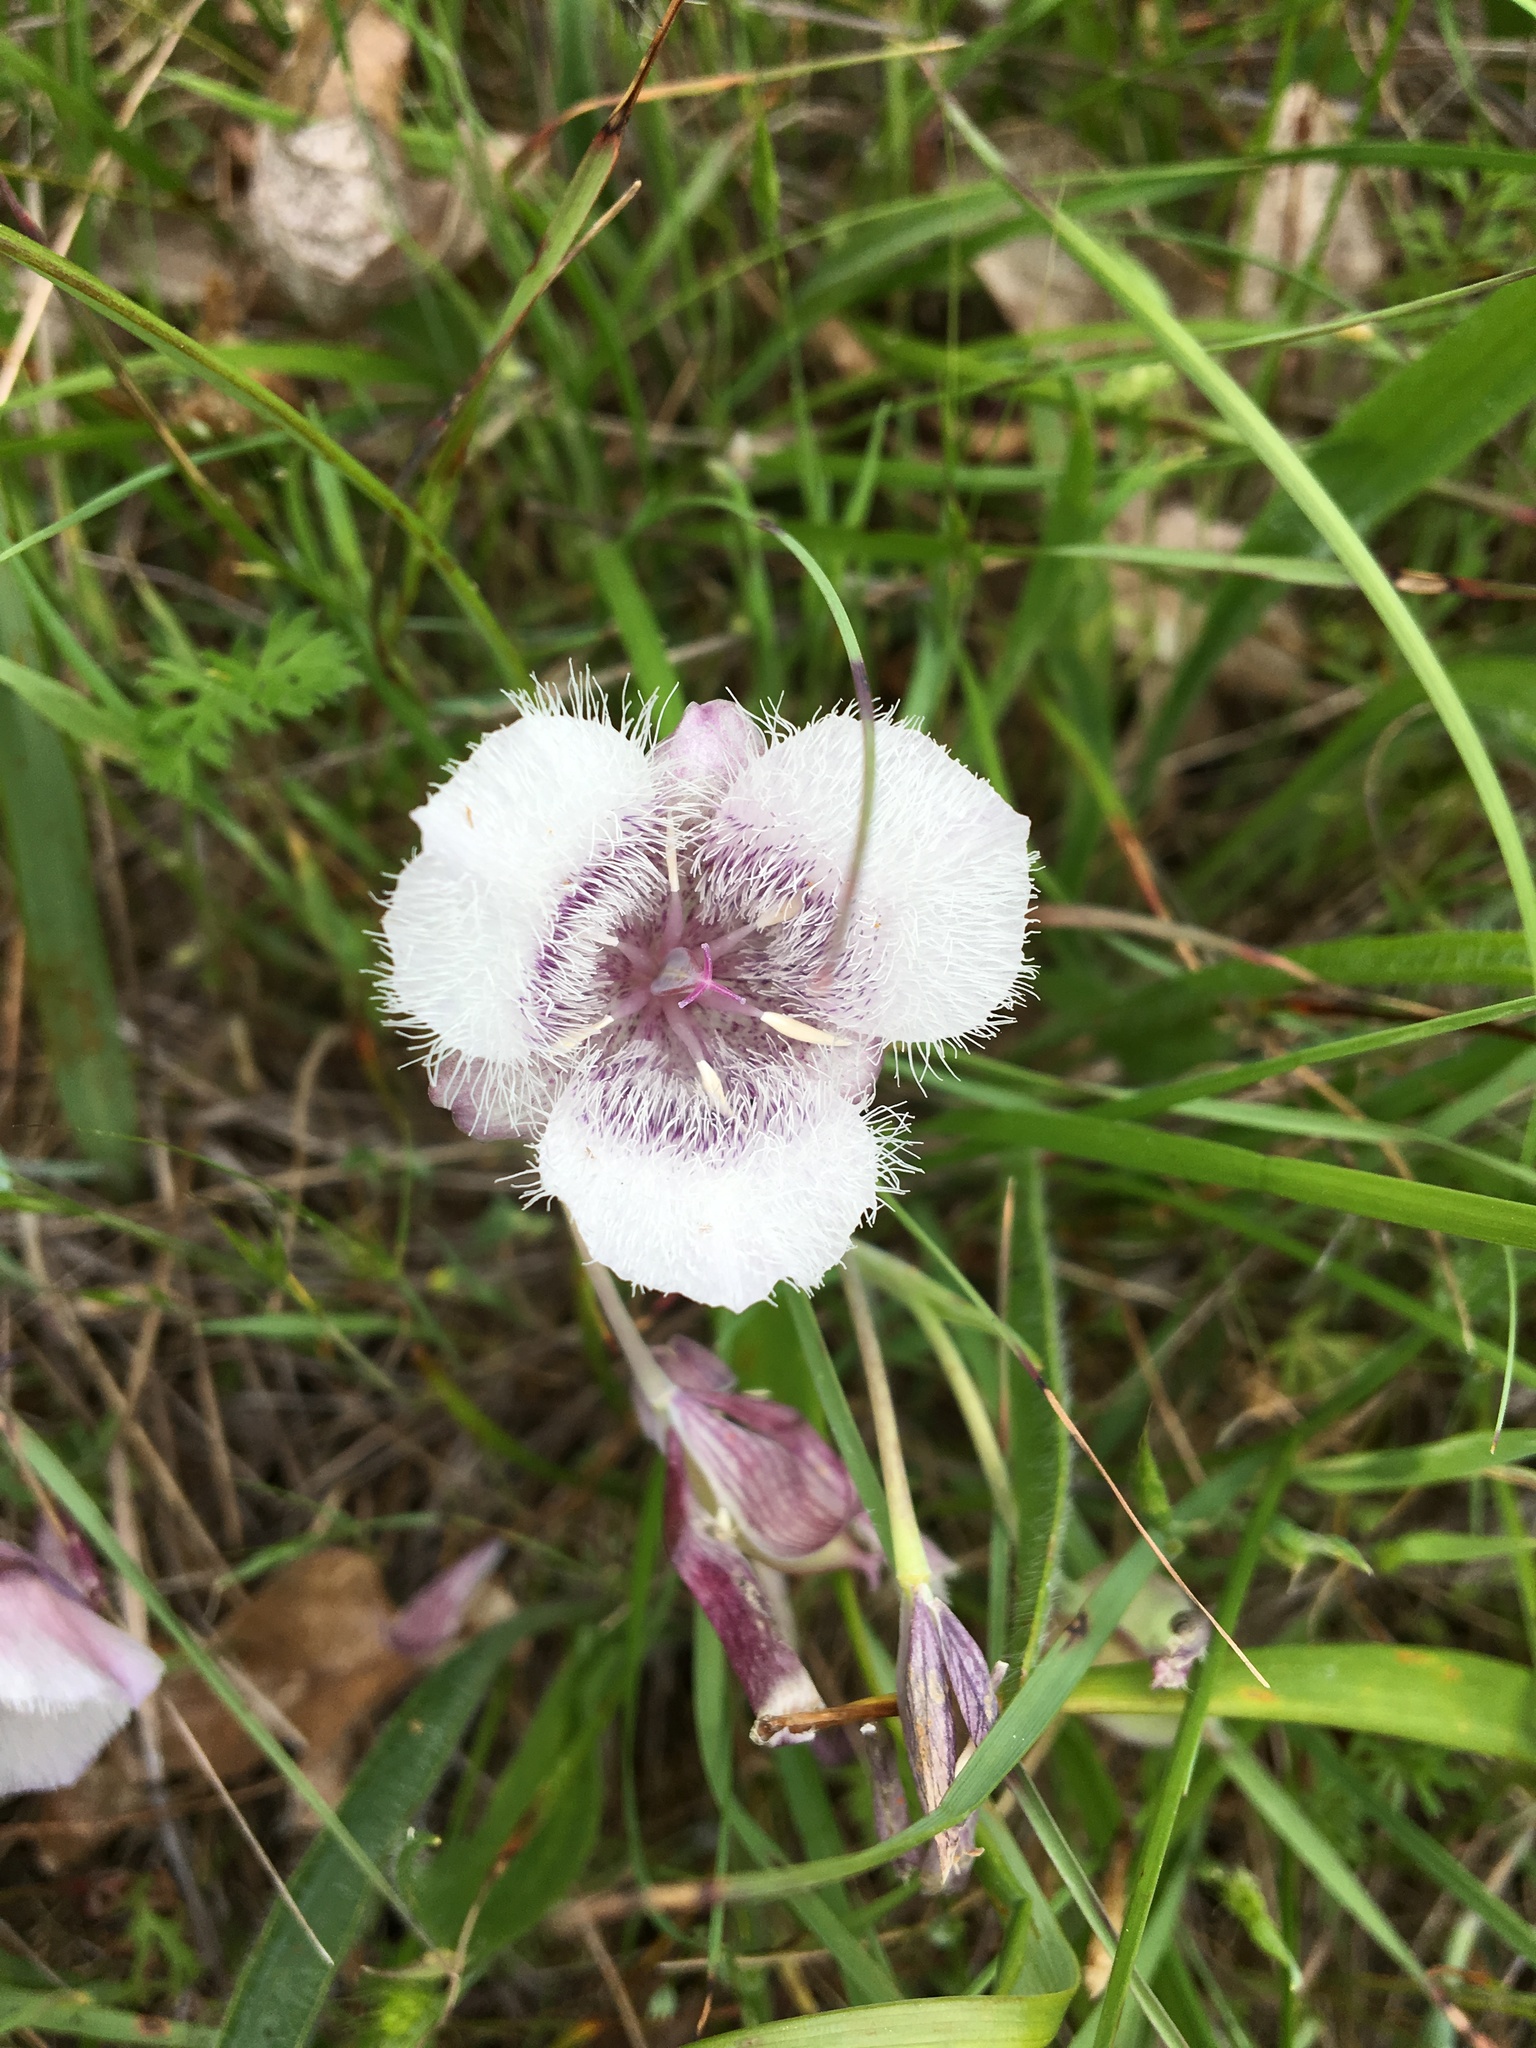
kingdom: Plantae
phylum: Tracheophyta
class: Liliopsida
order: Liliales
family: Liliaceae
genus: Calochortus
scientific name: Calochortus tolmiei
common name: Pussy-ears
